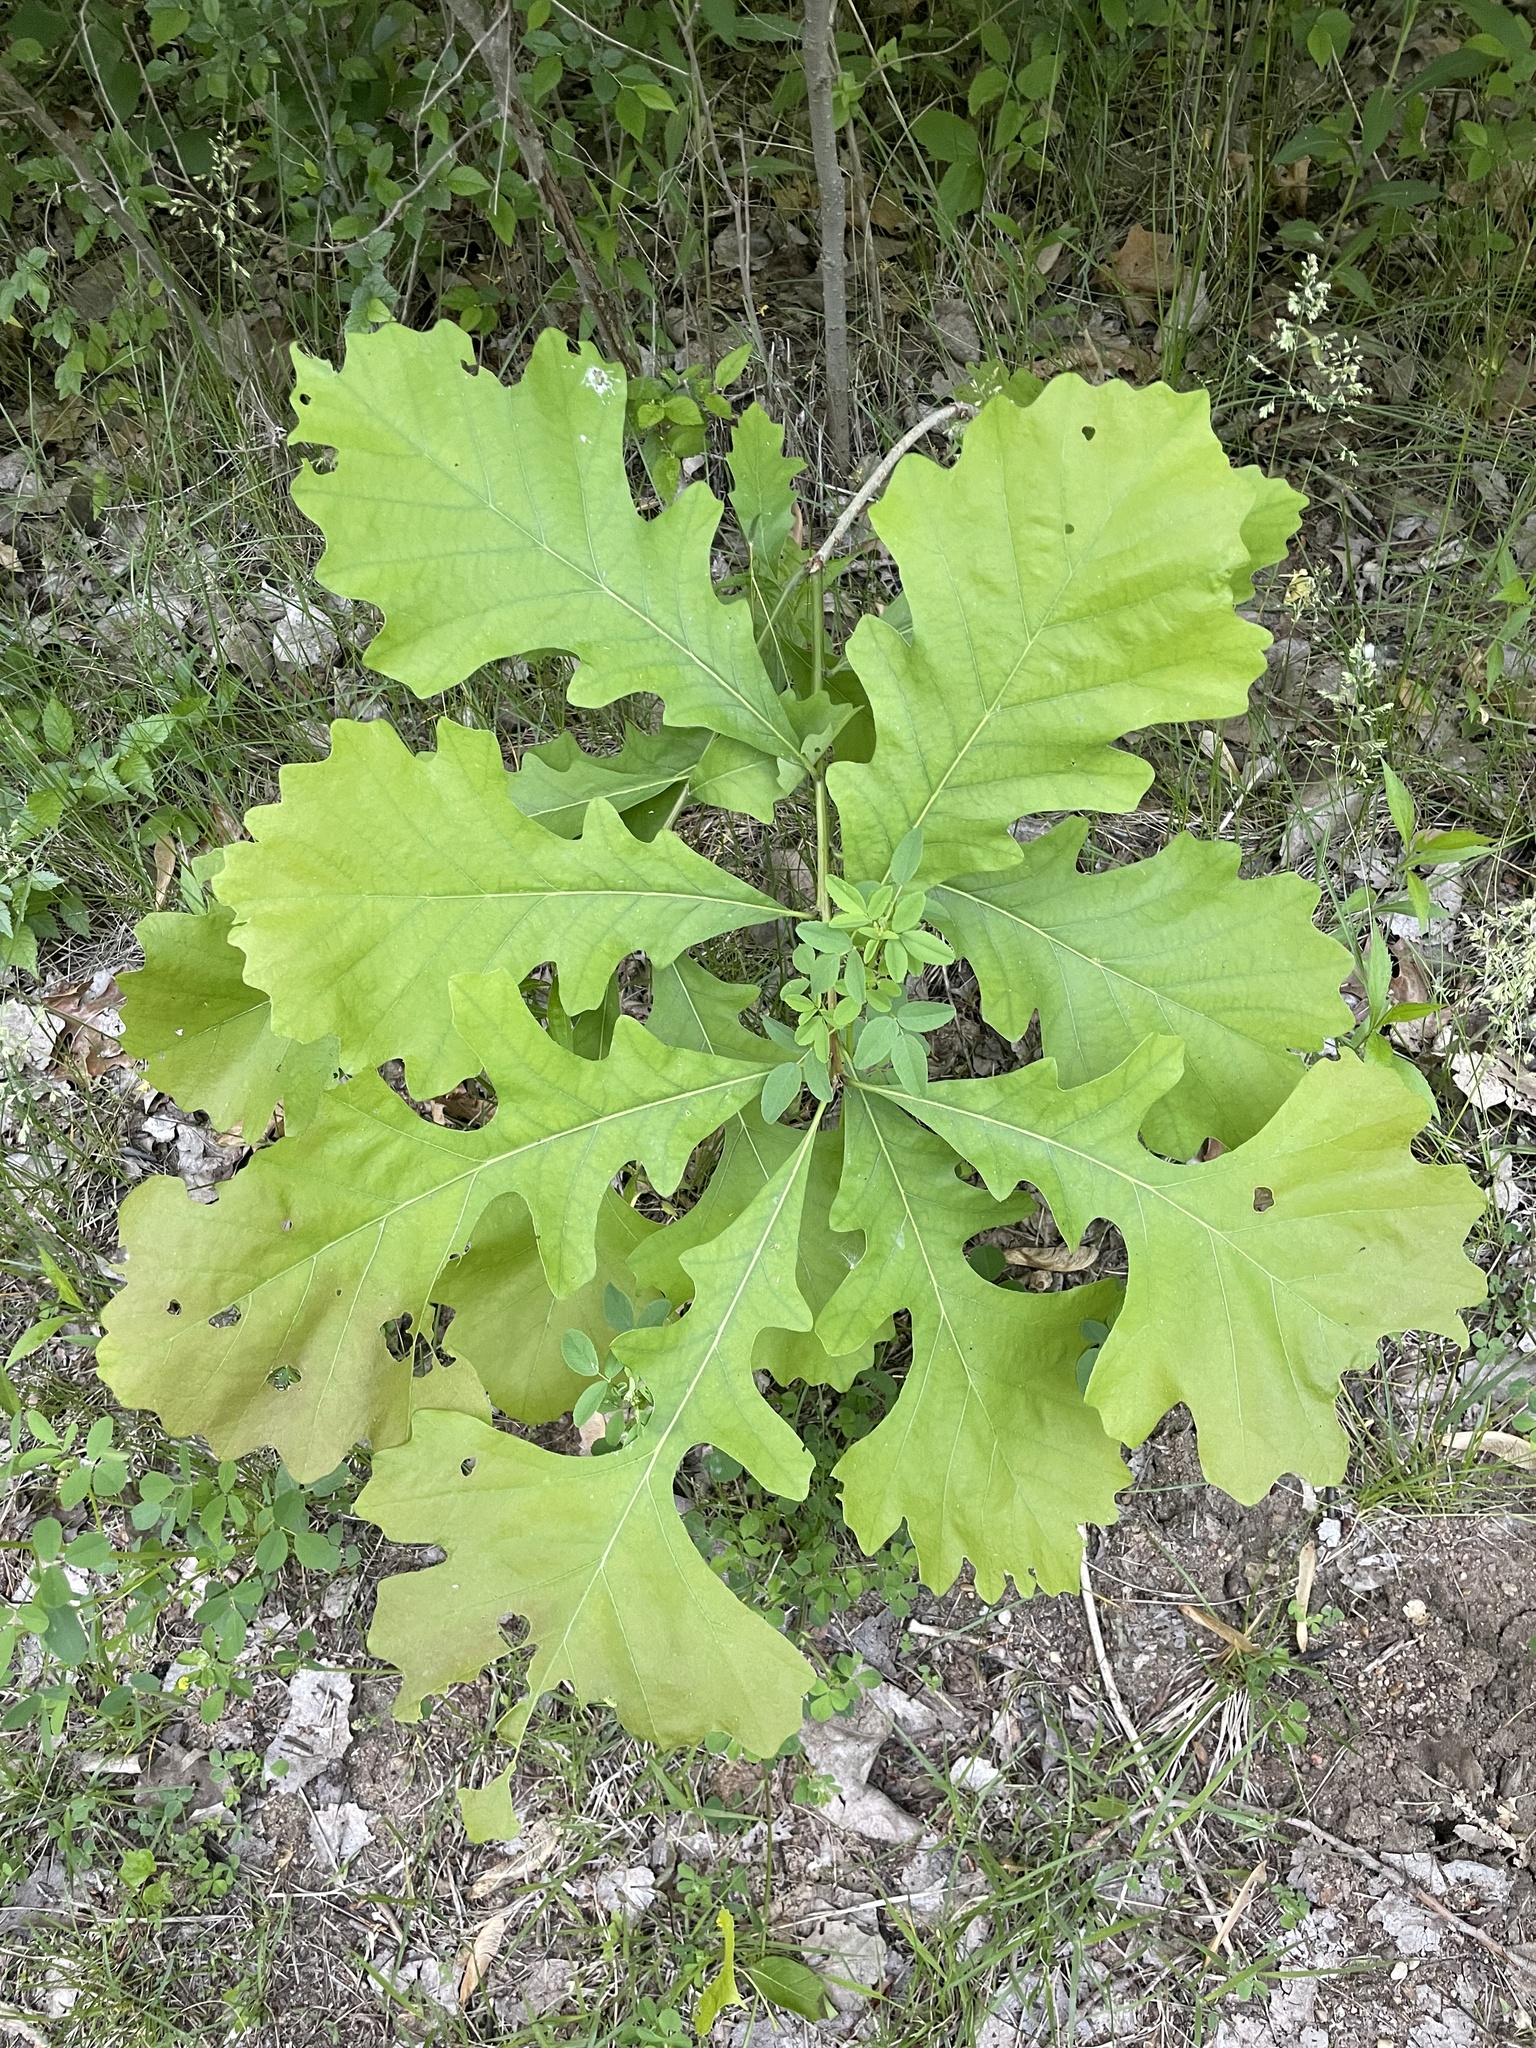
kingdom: Plantae
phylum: Tracheophyta
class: Magnoliopsida
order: Fagales
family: Fagaceae
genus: Quercus
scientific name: Quercus macrocarpa
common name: Bur oak
